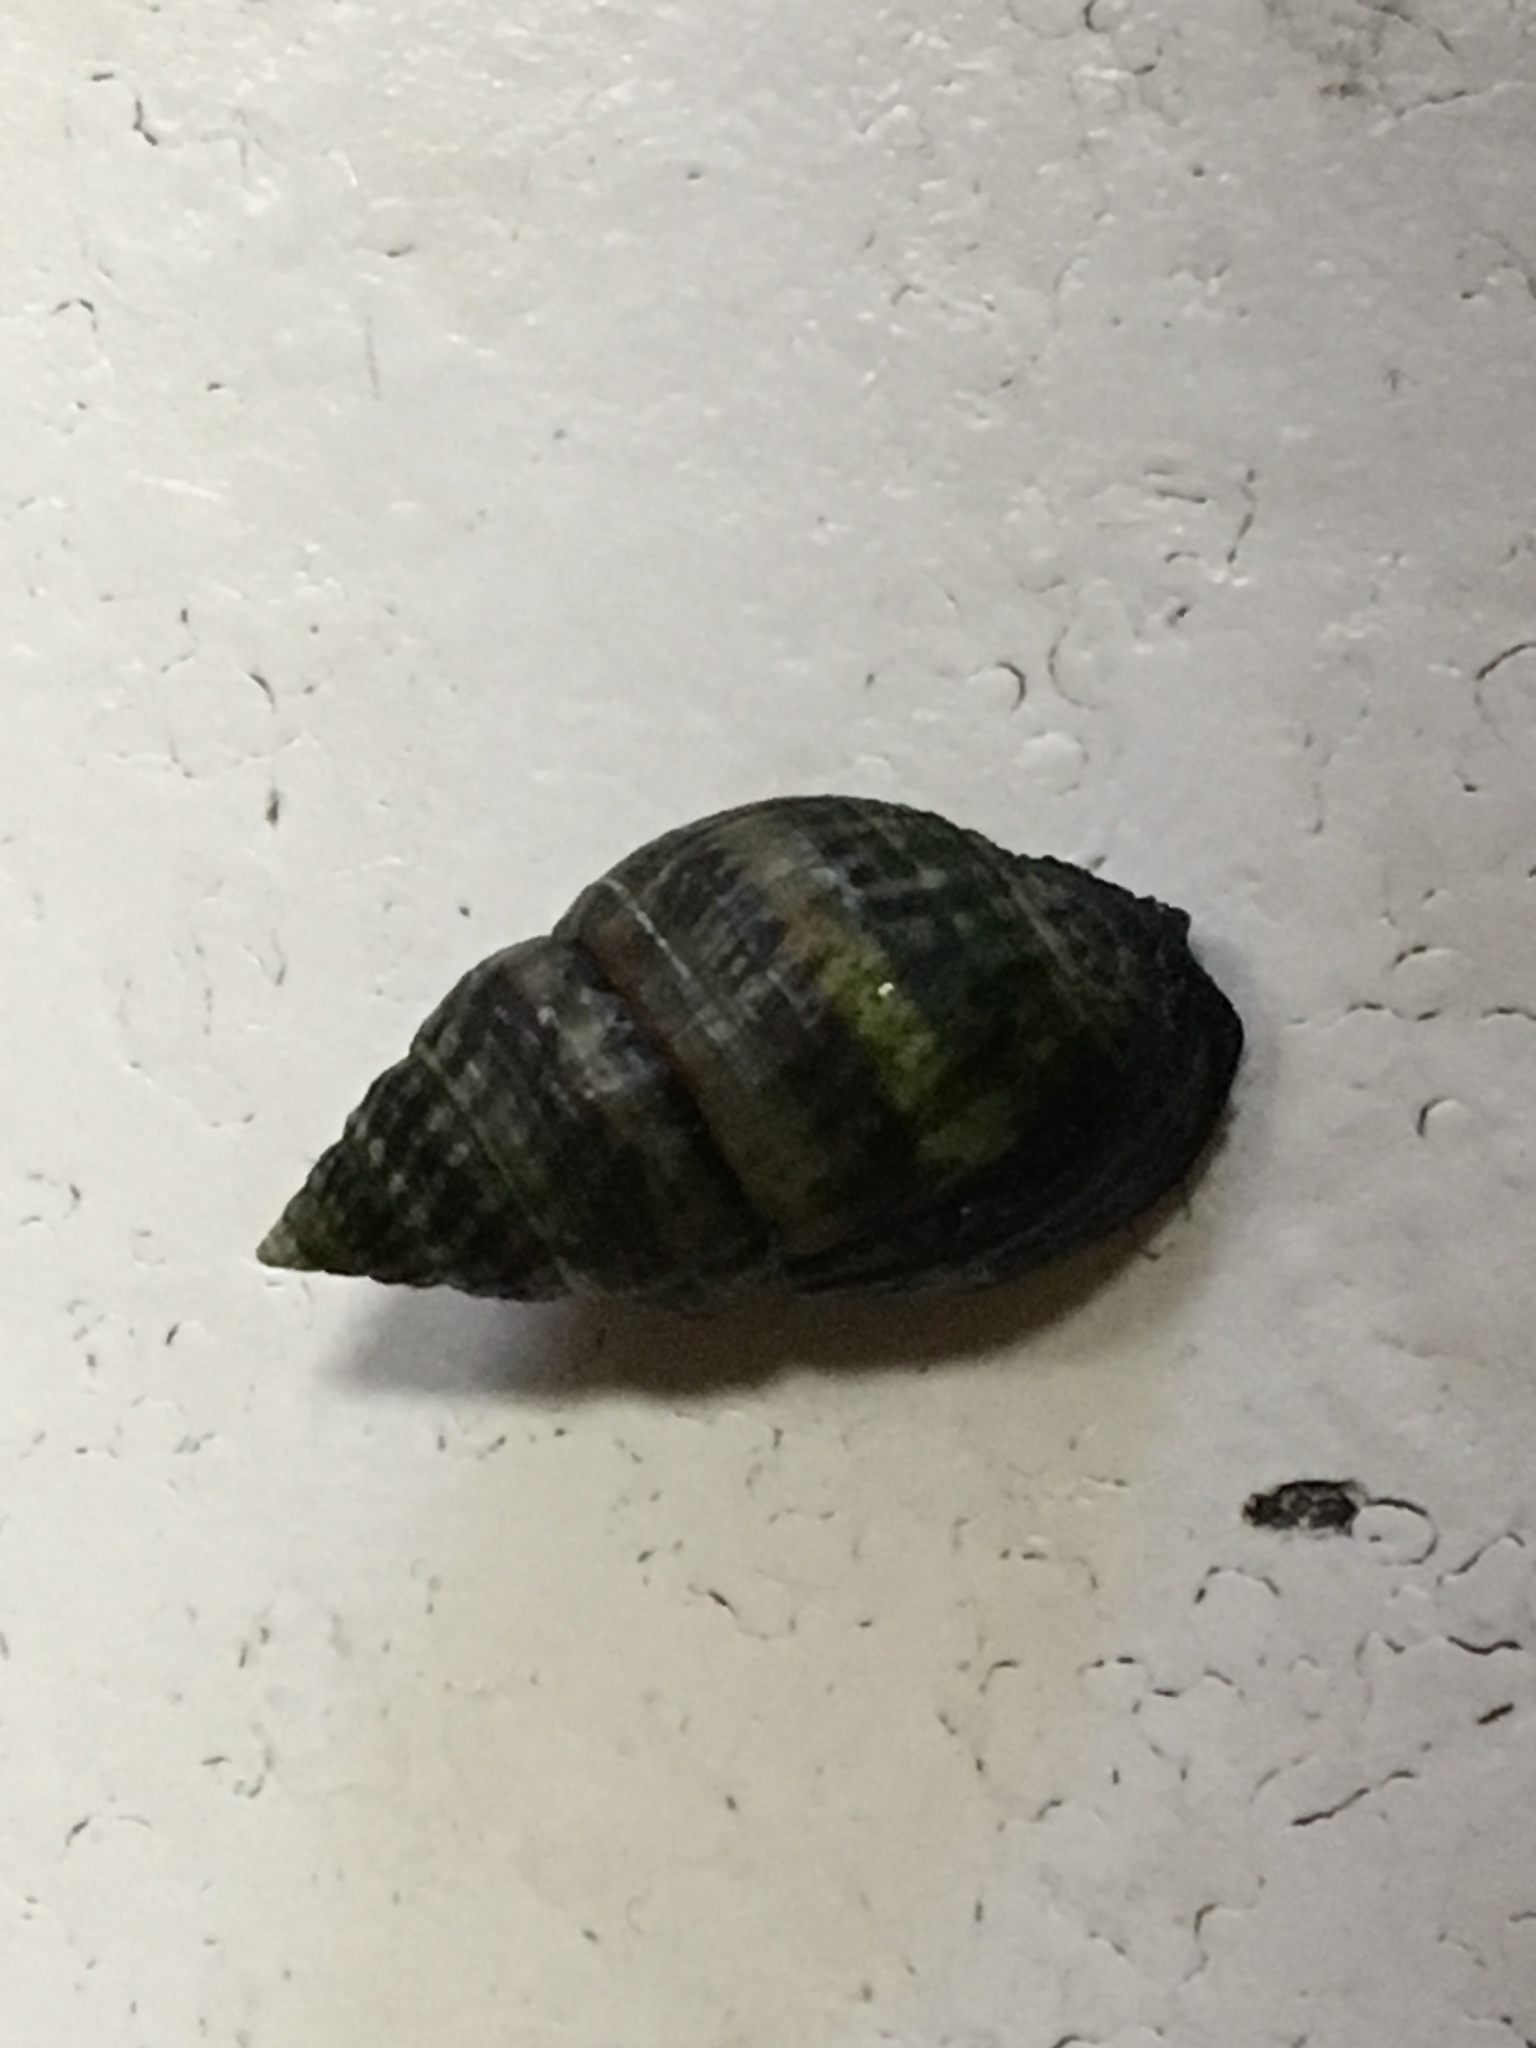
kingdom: Animalia
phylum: Mollusca
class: Gastropoda
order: Neogastropoda
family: Nassariidae
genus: Ilyanassa
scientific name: Ilyanassa obsoleta
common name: Eastern mudsnail
